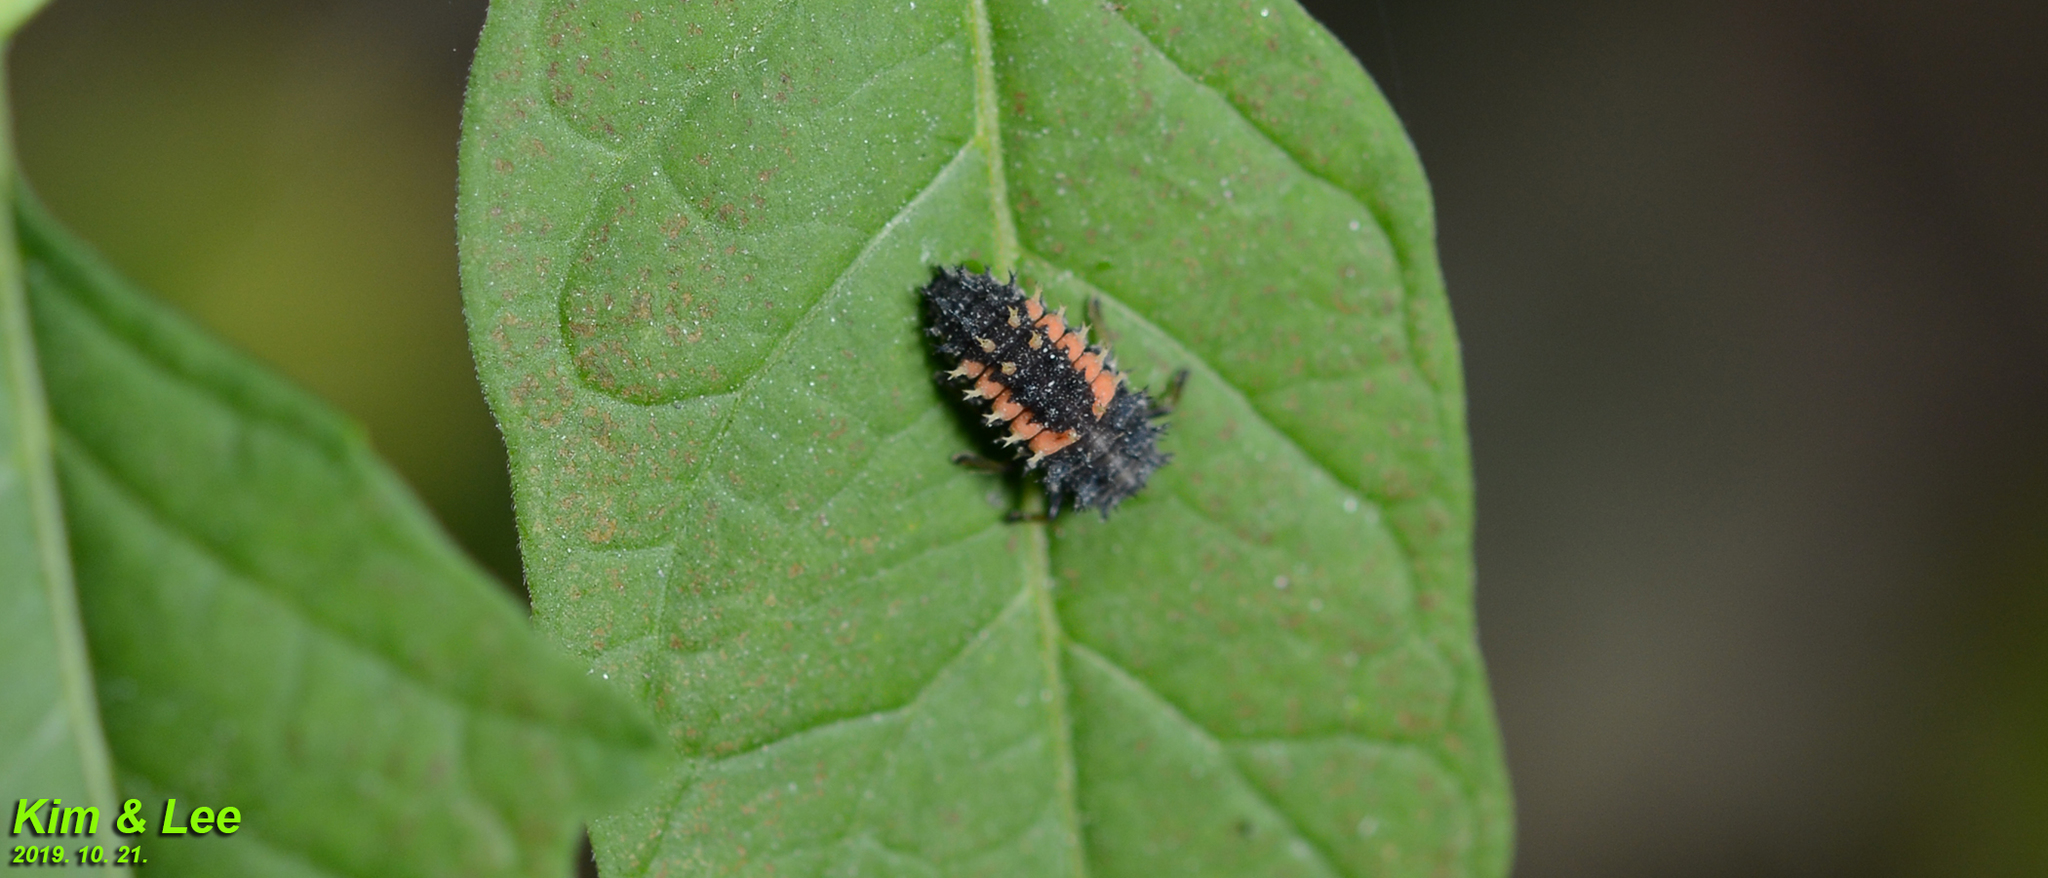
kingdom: Animalia
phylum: Arthropoda
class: Insecta
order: Coleoptera
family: Coccinellidae
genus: Harmonia
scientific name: Harmonia axyridis
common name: Harlequin ladybird
